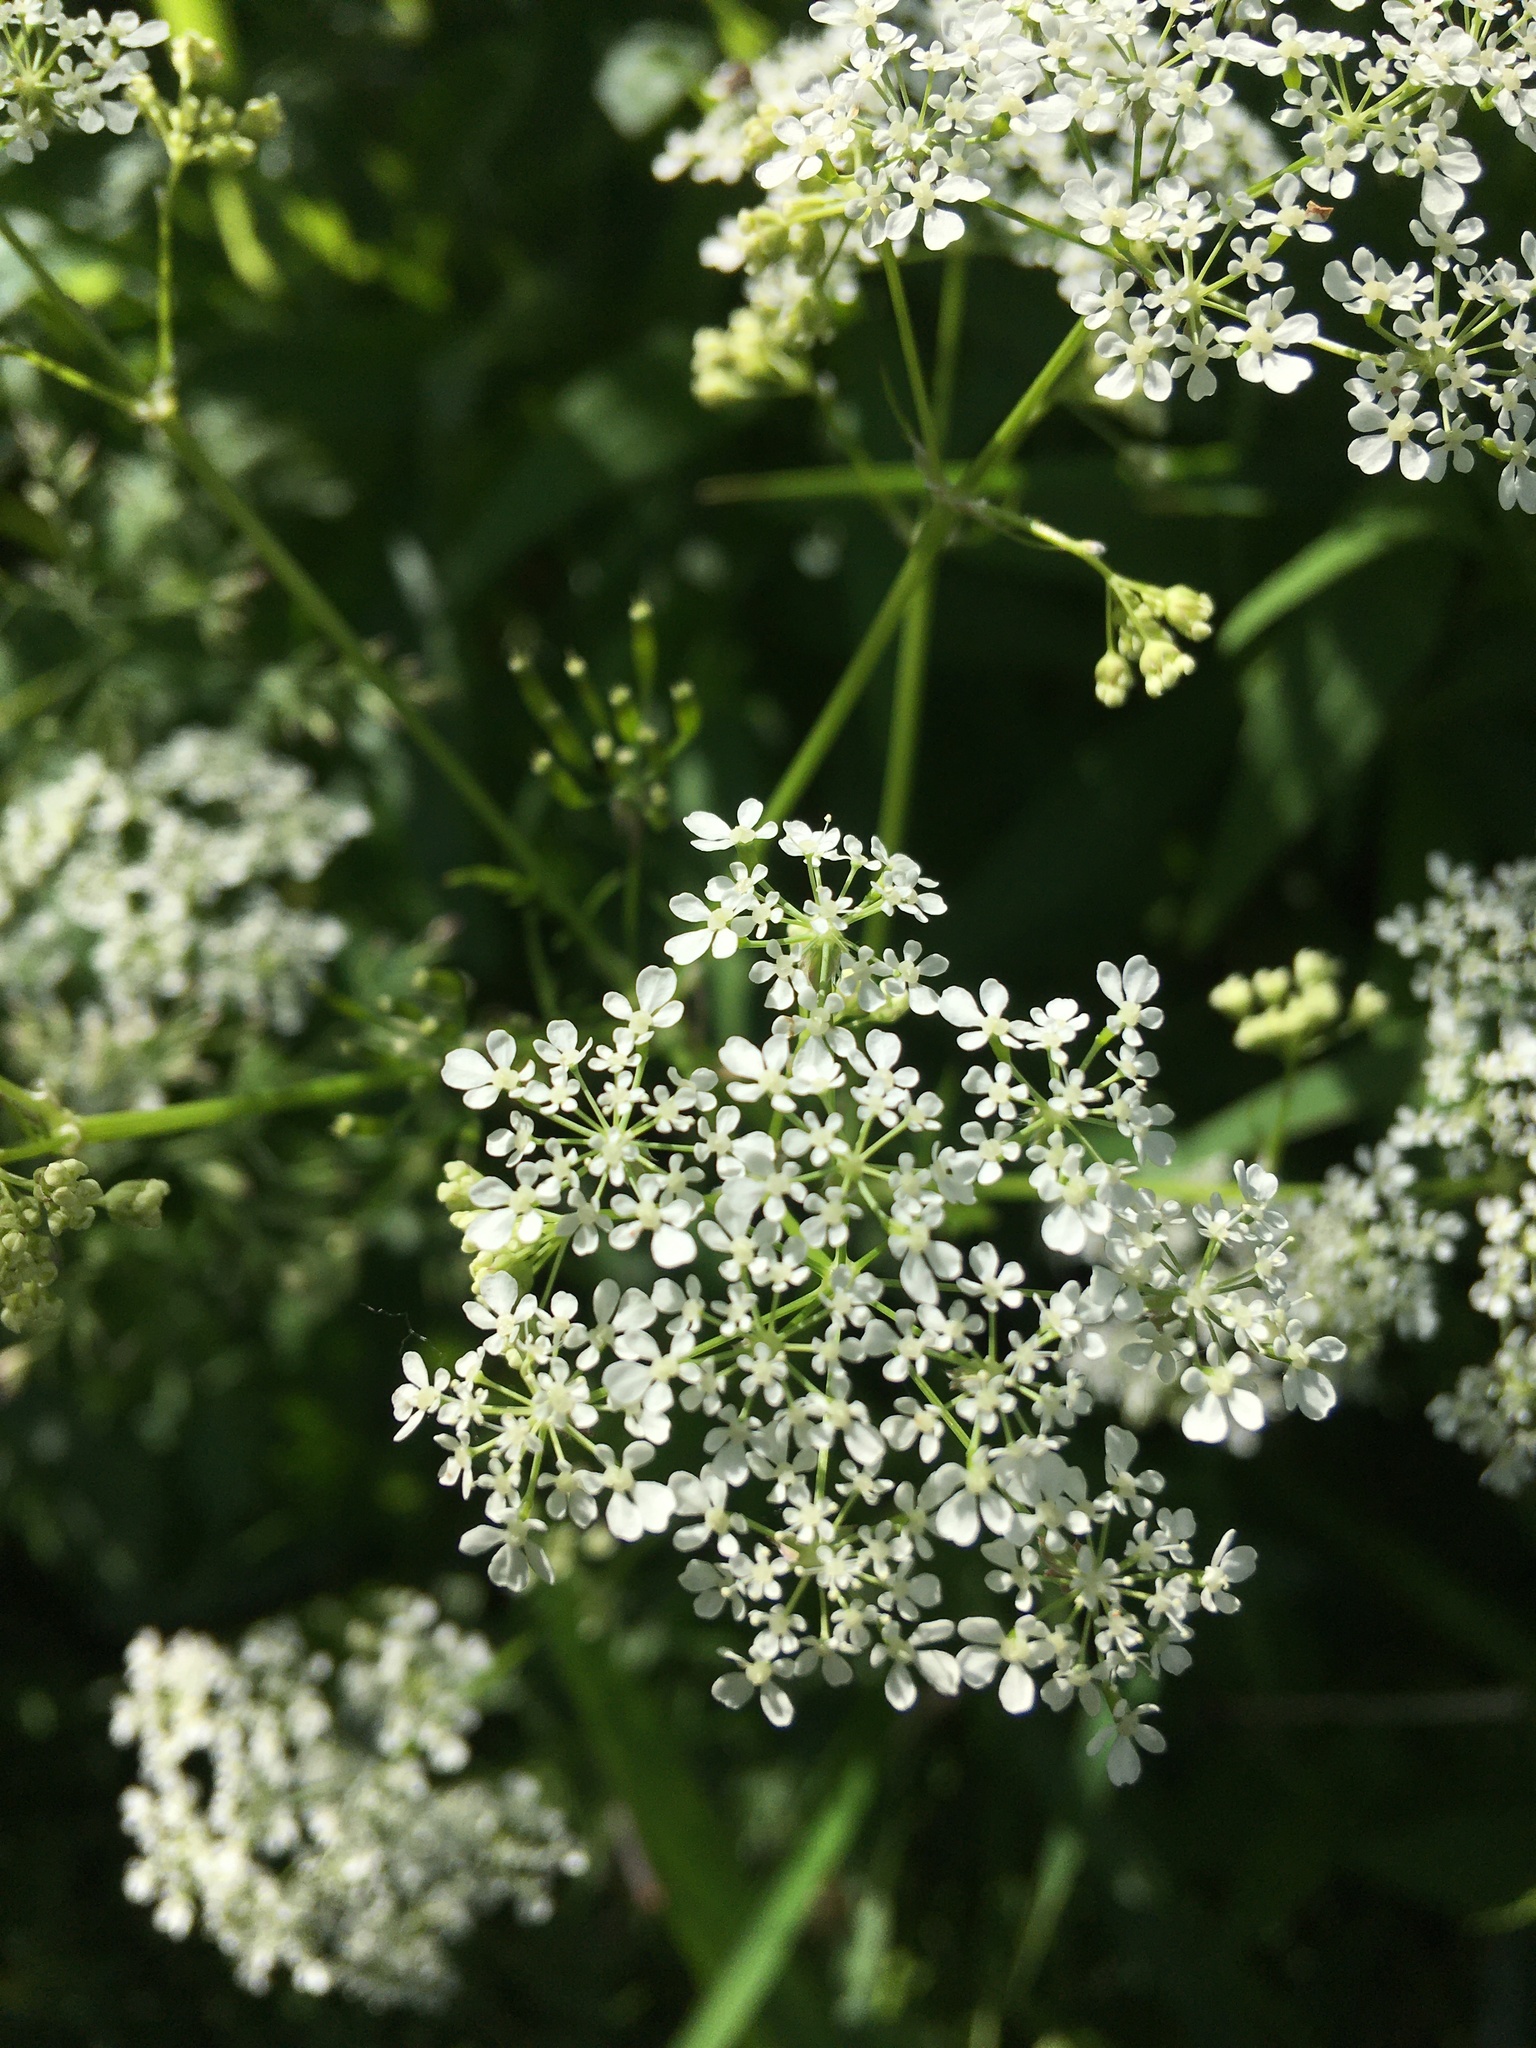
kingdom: Plantae
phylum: Tracheophyta
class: Magnoliopsida
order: Apiales
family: Apiaceae
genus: Anthriscus
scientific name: Anthriscus sylvestris
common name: Cow parsley
